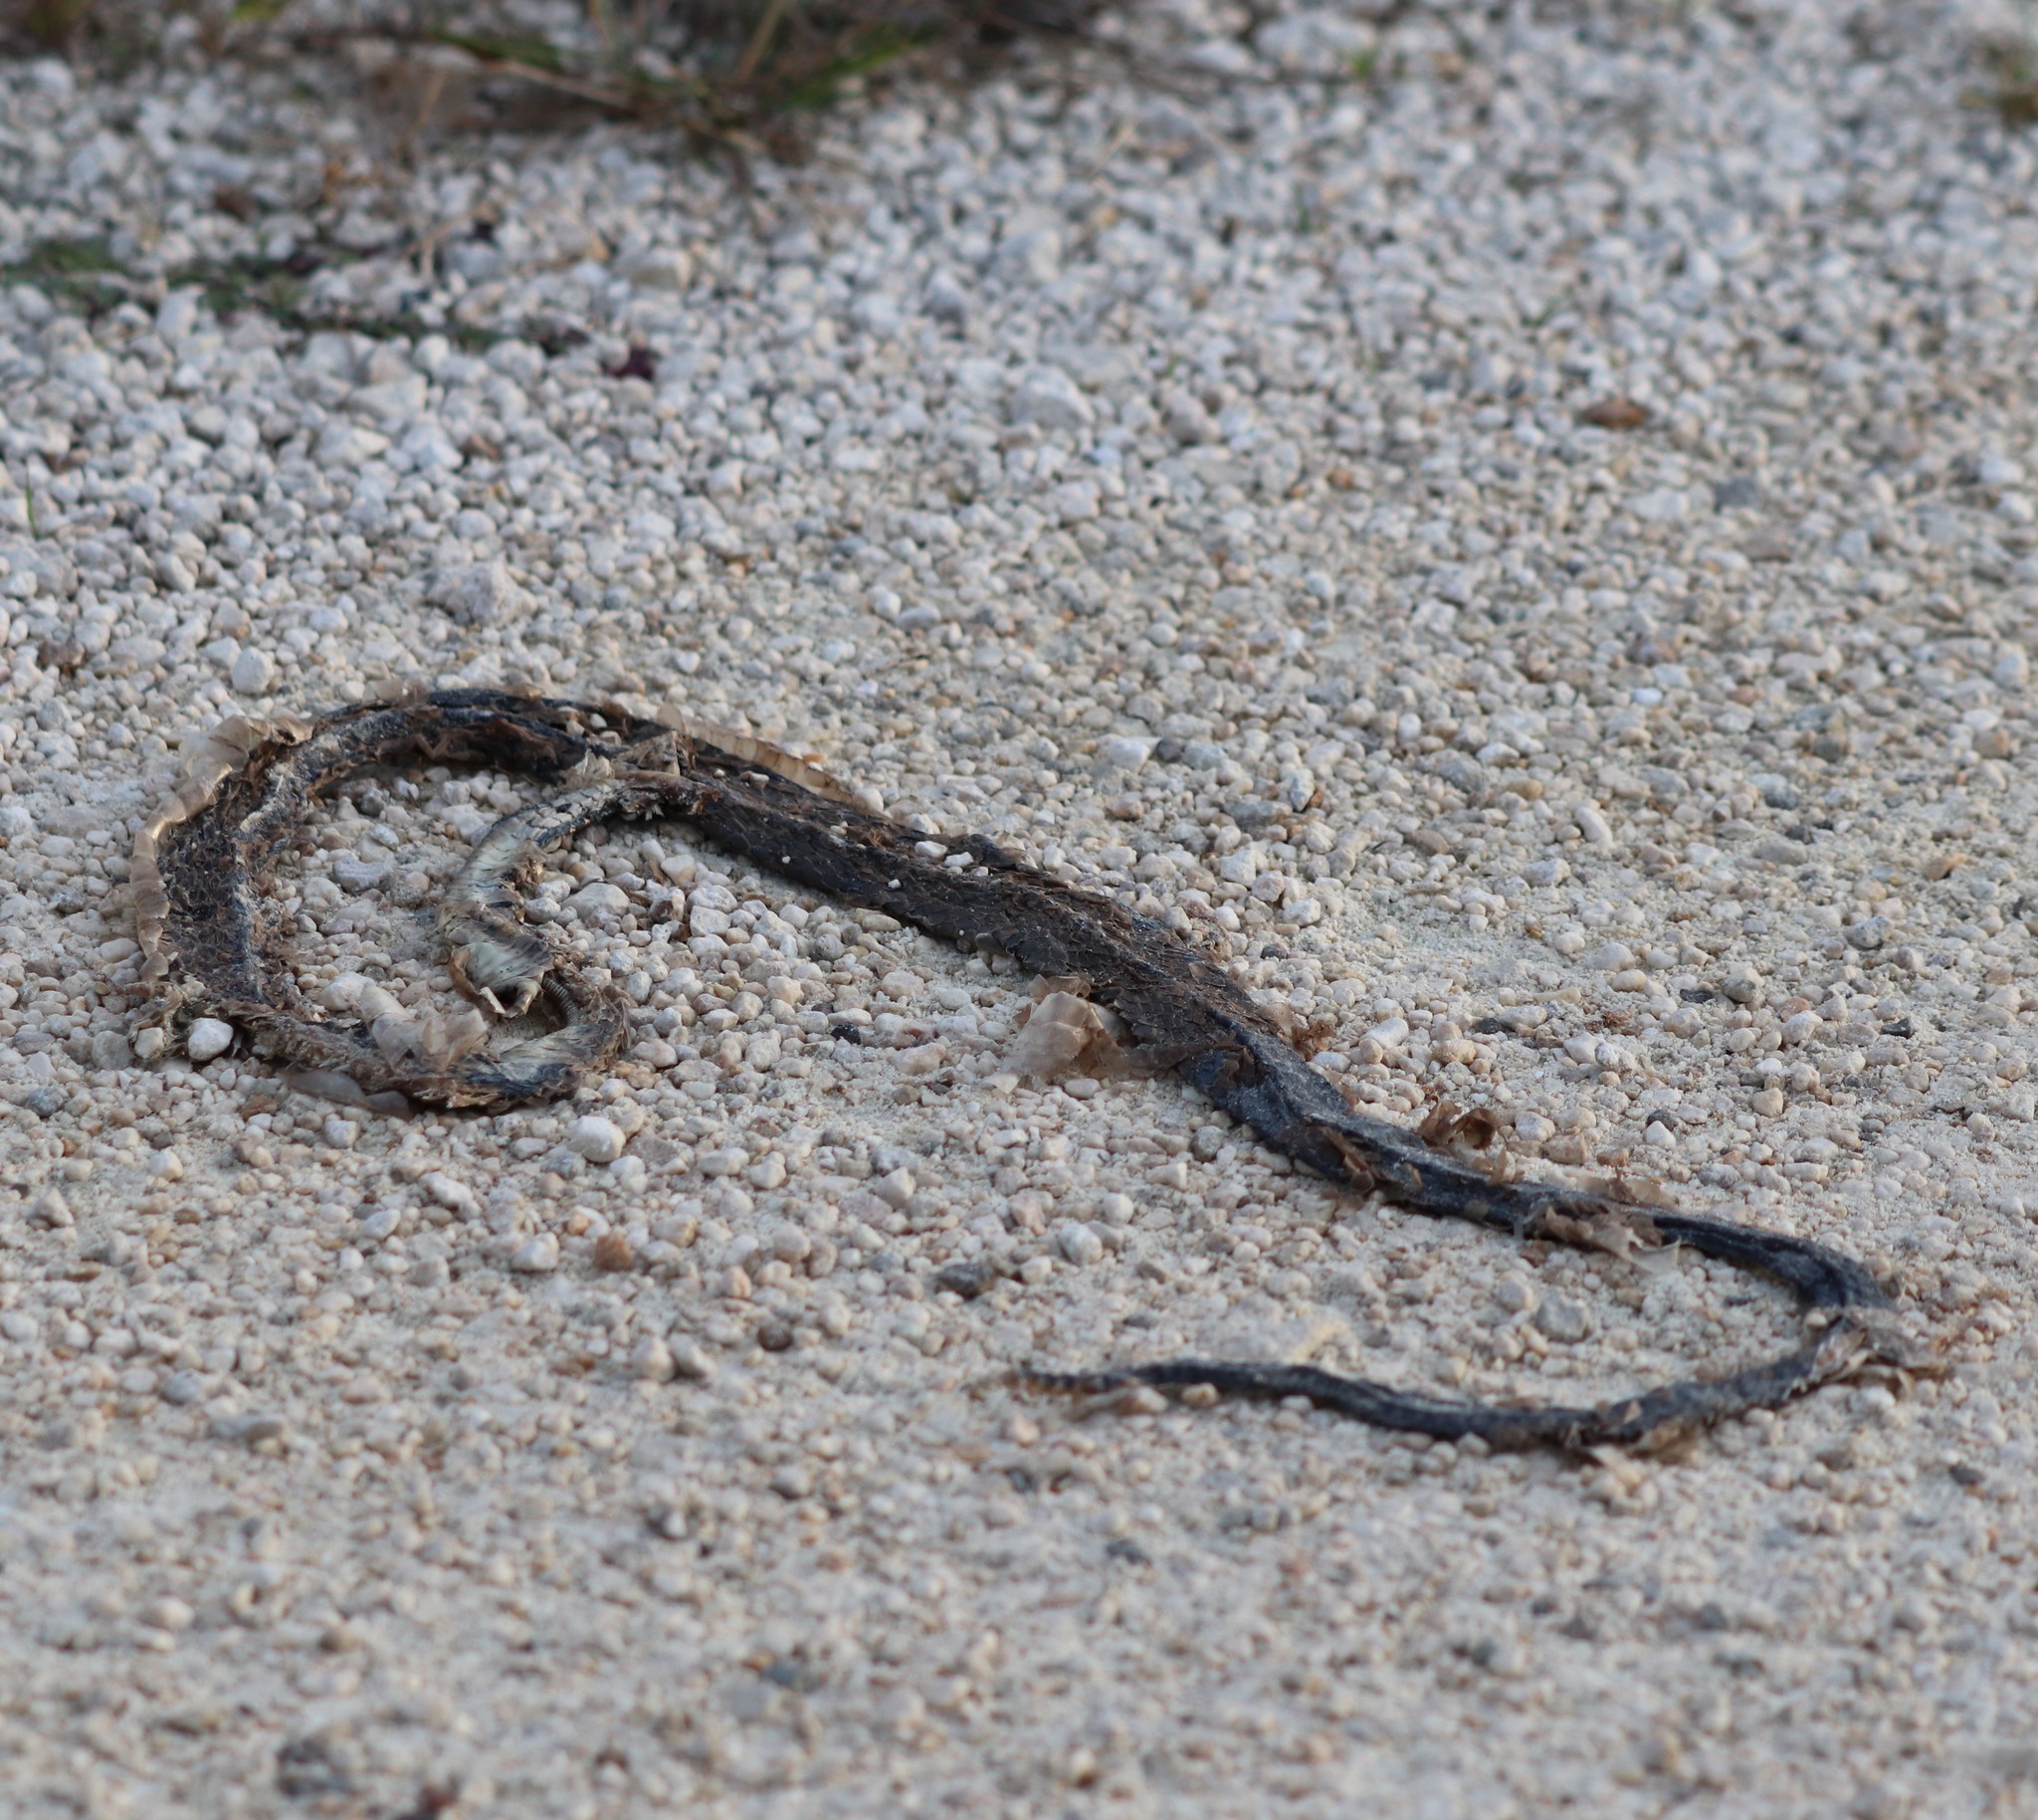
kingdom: Animalia
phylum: Chordata
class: Squamata
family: Colubridae
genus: Coluber
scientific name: Coluber constrictor
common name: Eastern racer
